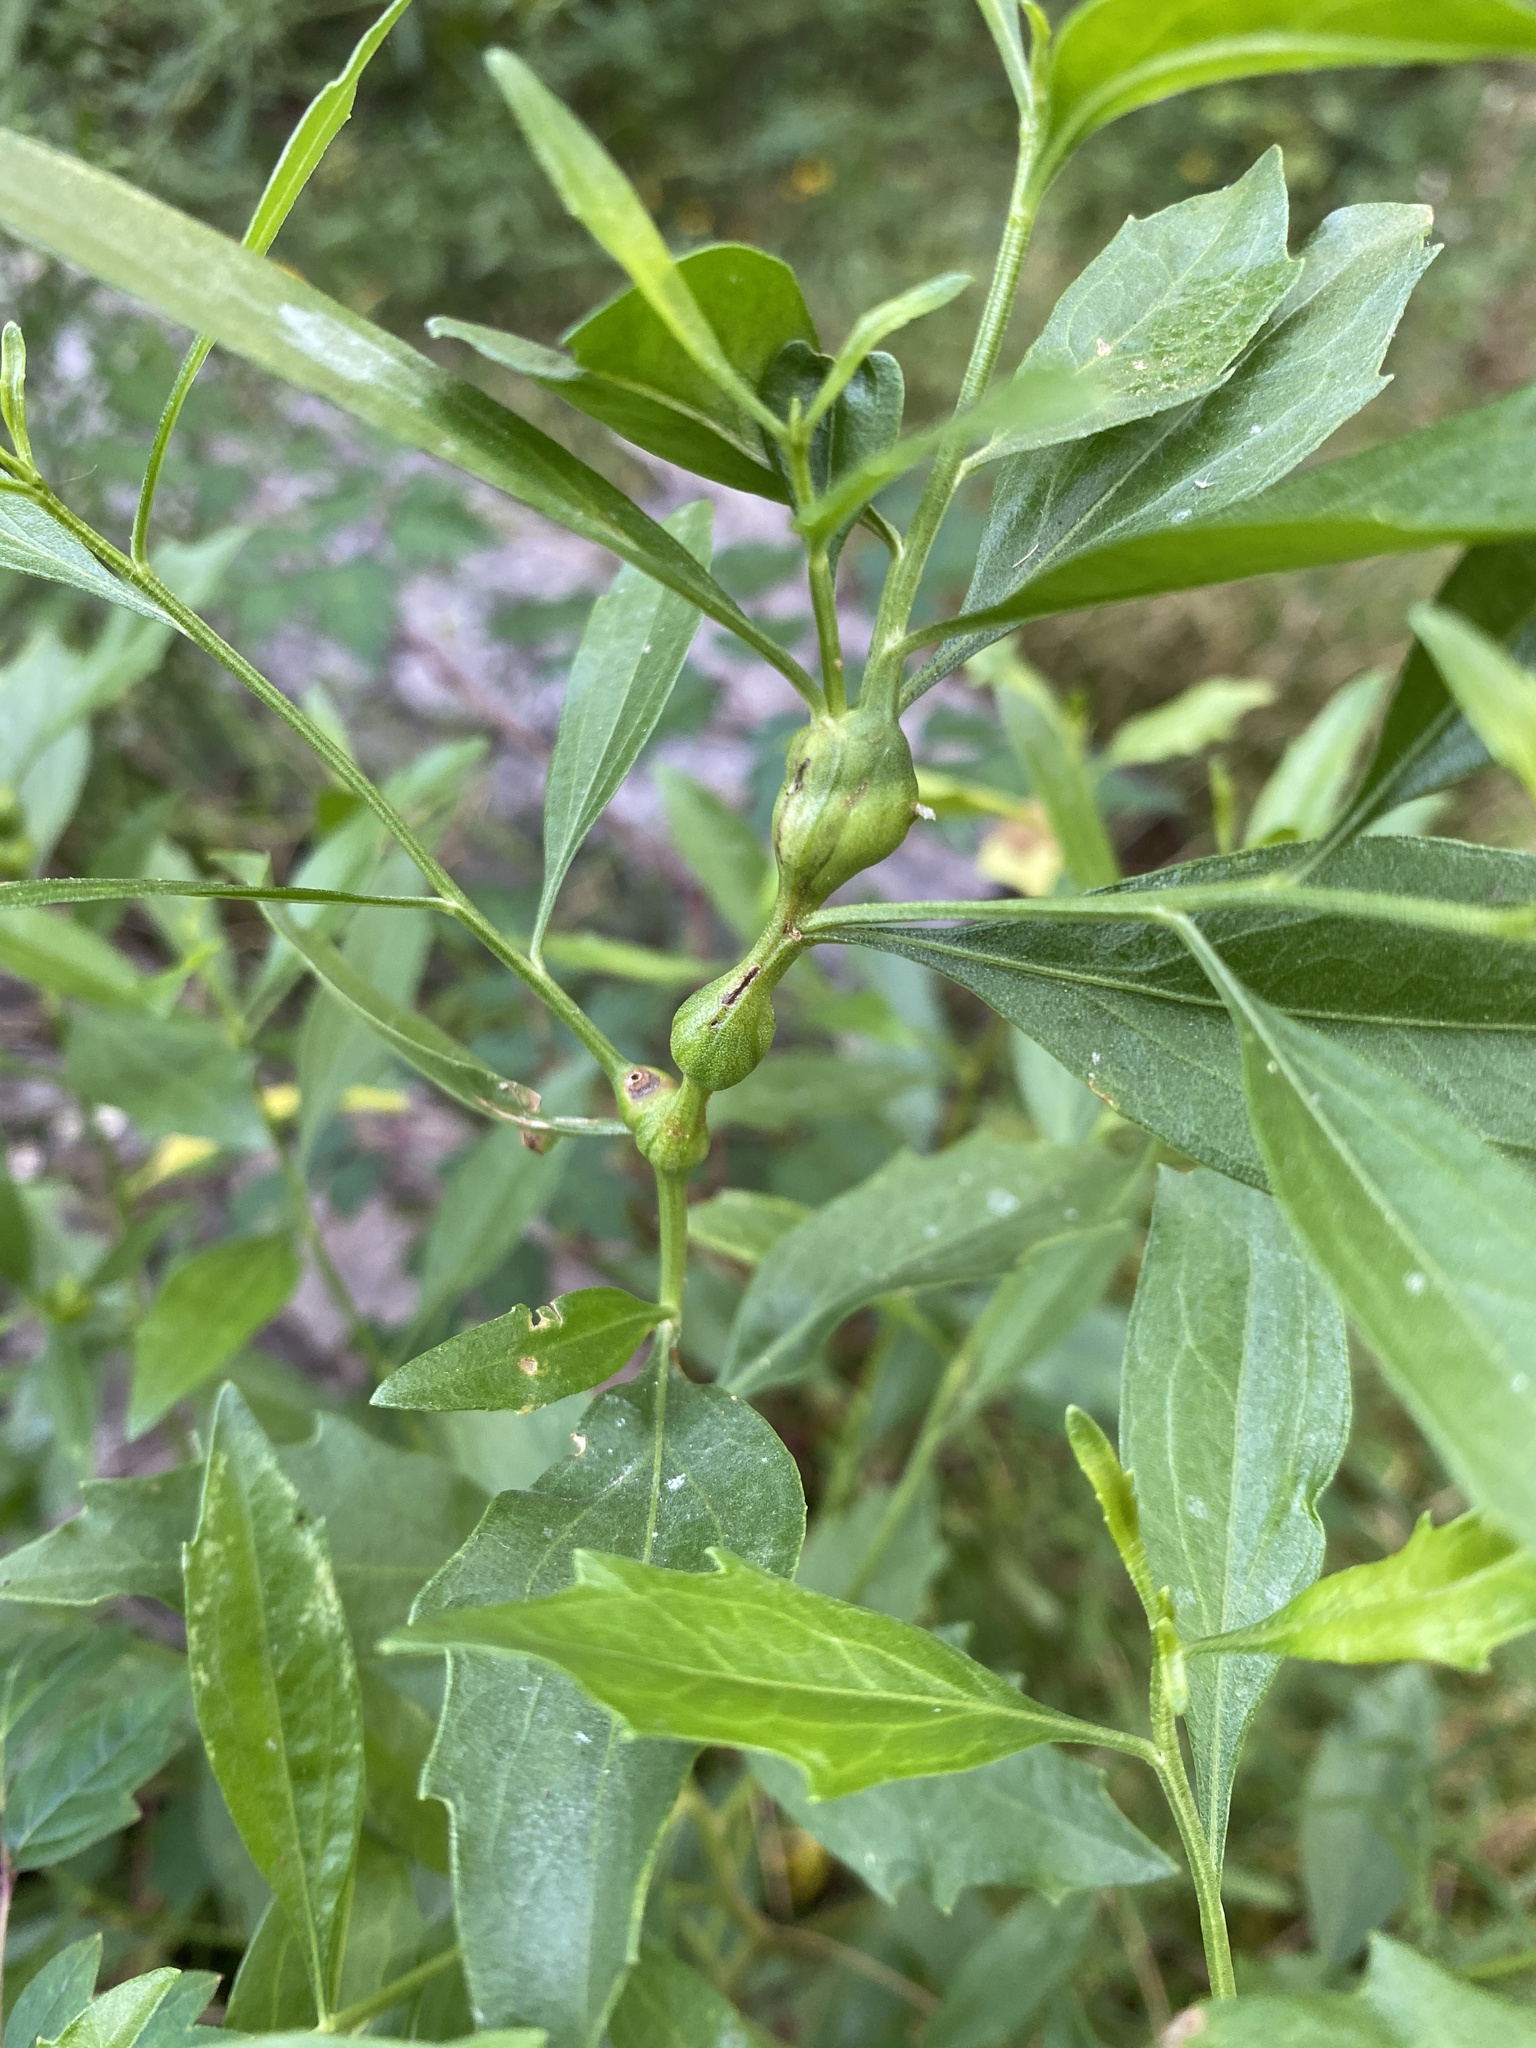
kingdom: Plantae
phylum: Tracheophyta
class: Magnoliopsida
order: Asterales
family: Asteraceae
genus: Baccharis
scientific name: Baccharis halimifolia
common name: Eastern baccharis
